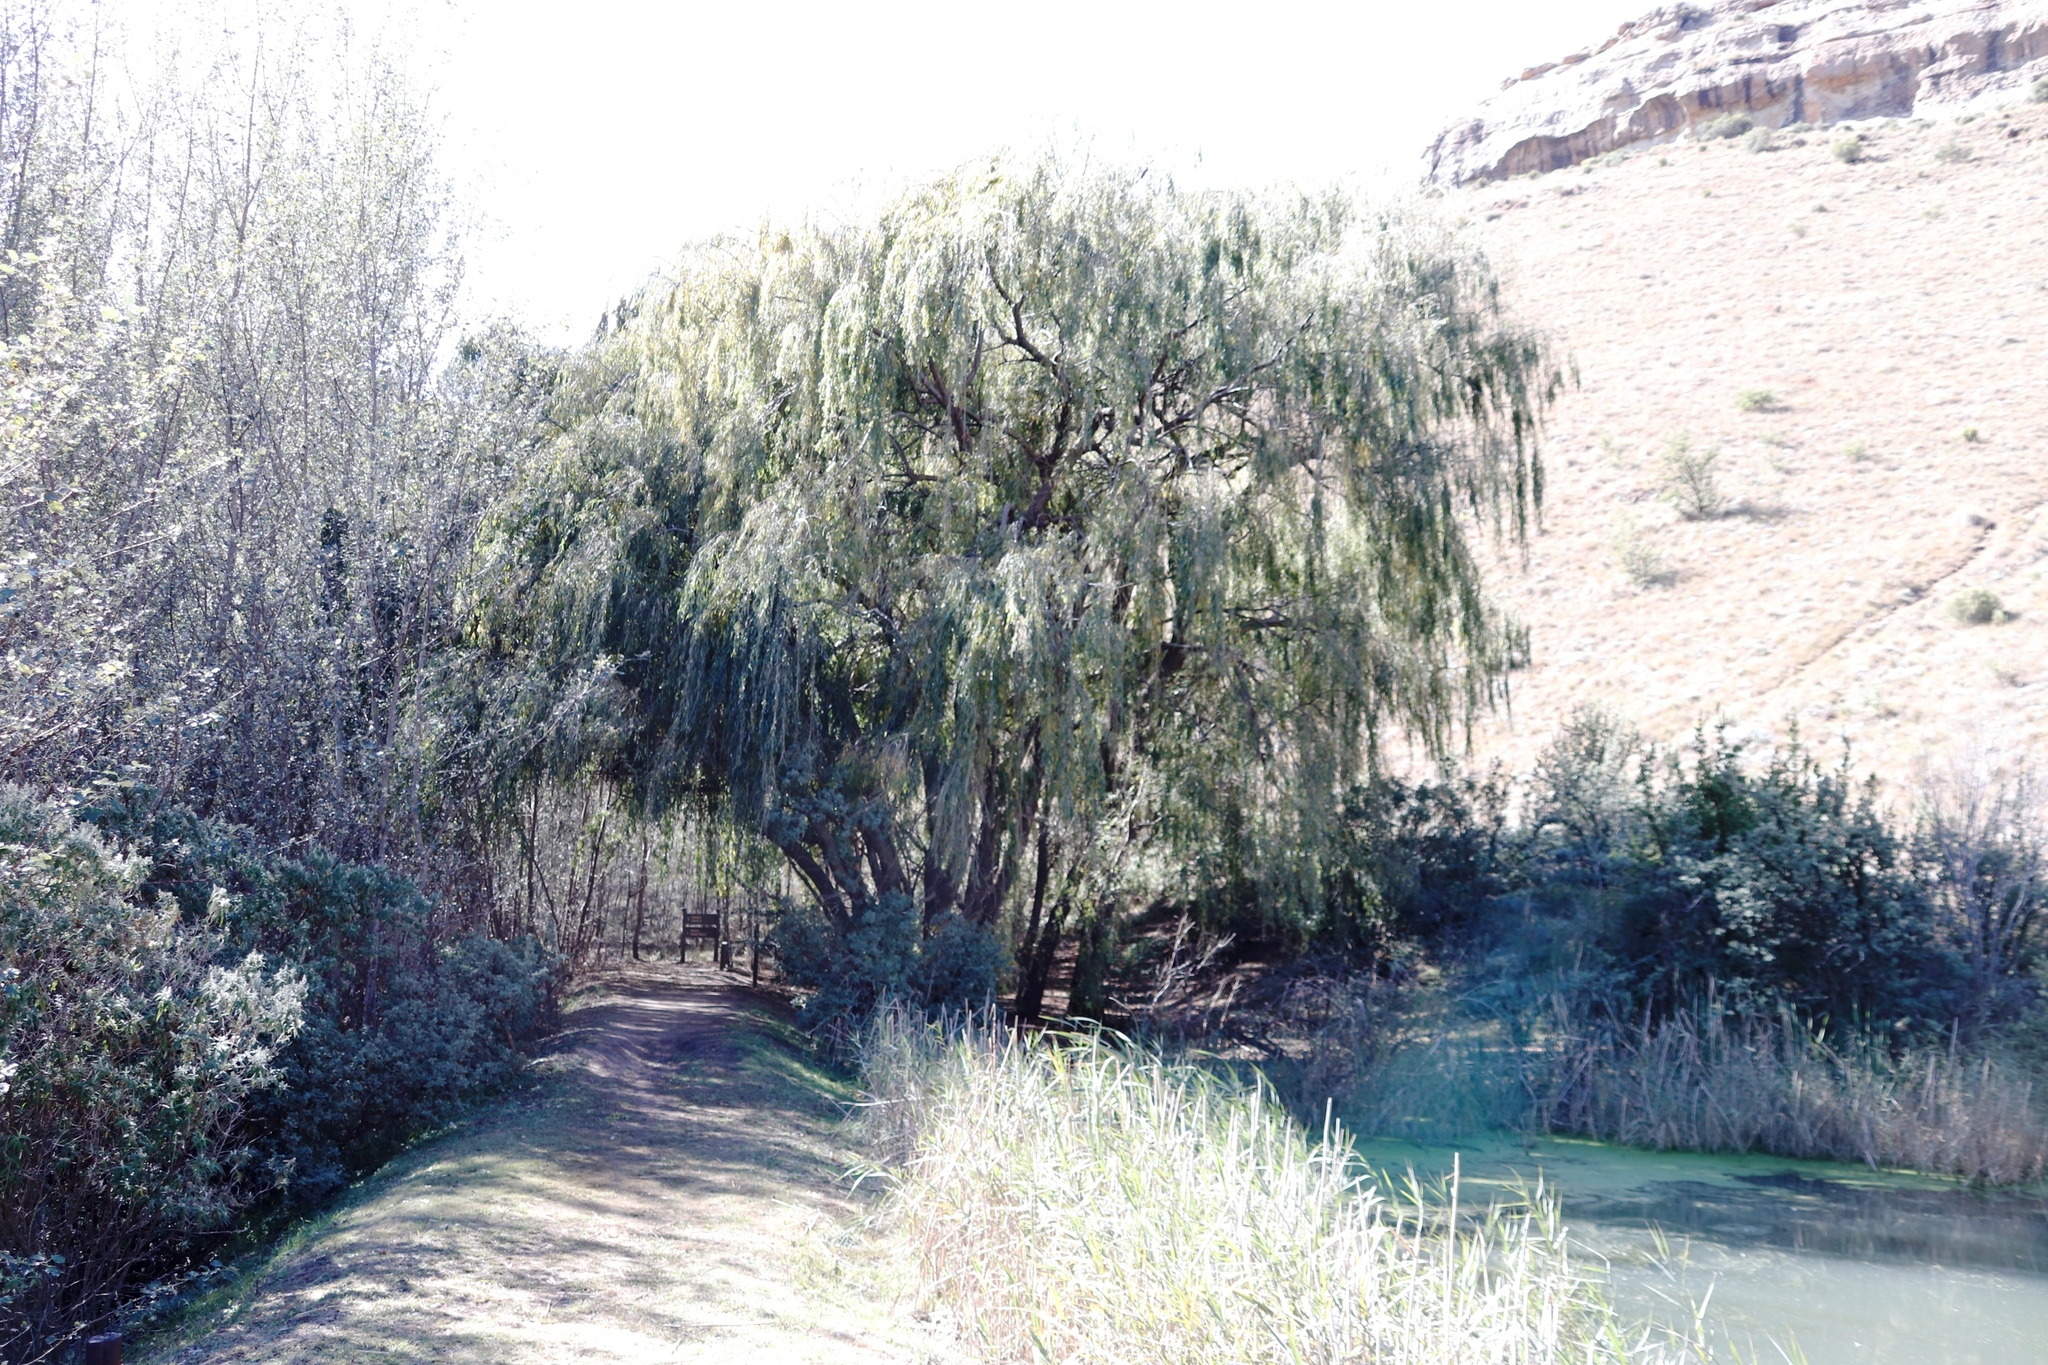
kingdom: Plantae
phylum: Tracheophyta
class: Magnoliopsida
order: Malpighiales
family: Salicaceae
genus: Salix
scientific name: Salix babylonica
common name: Weeping willow
